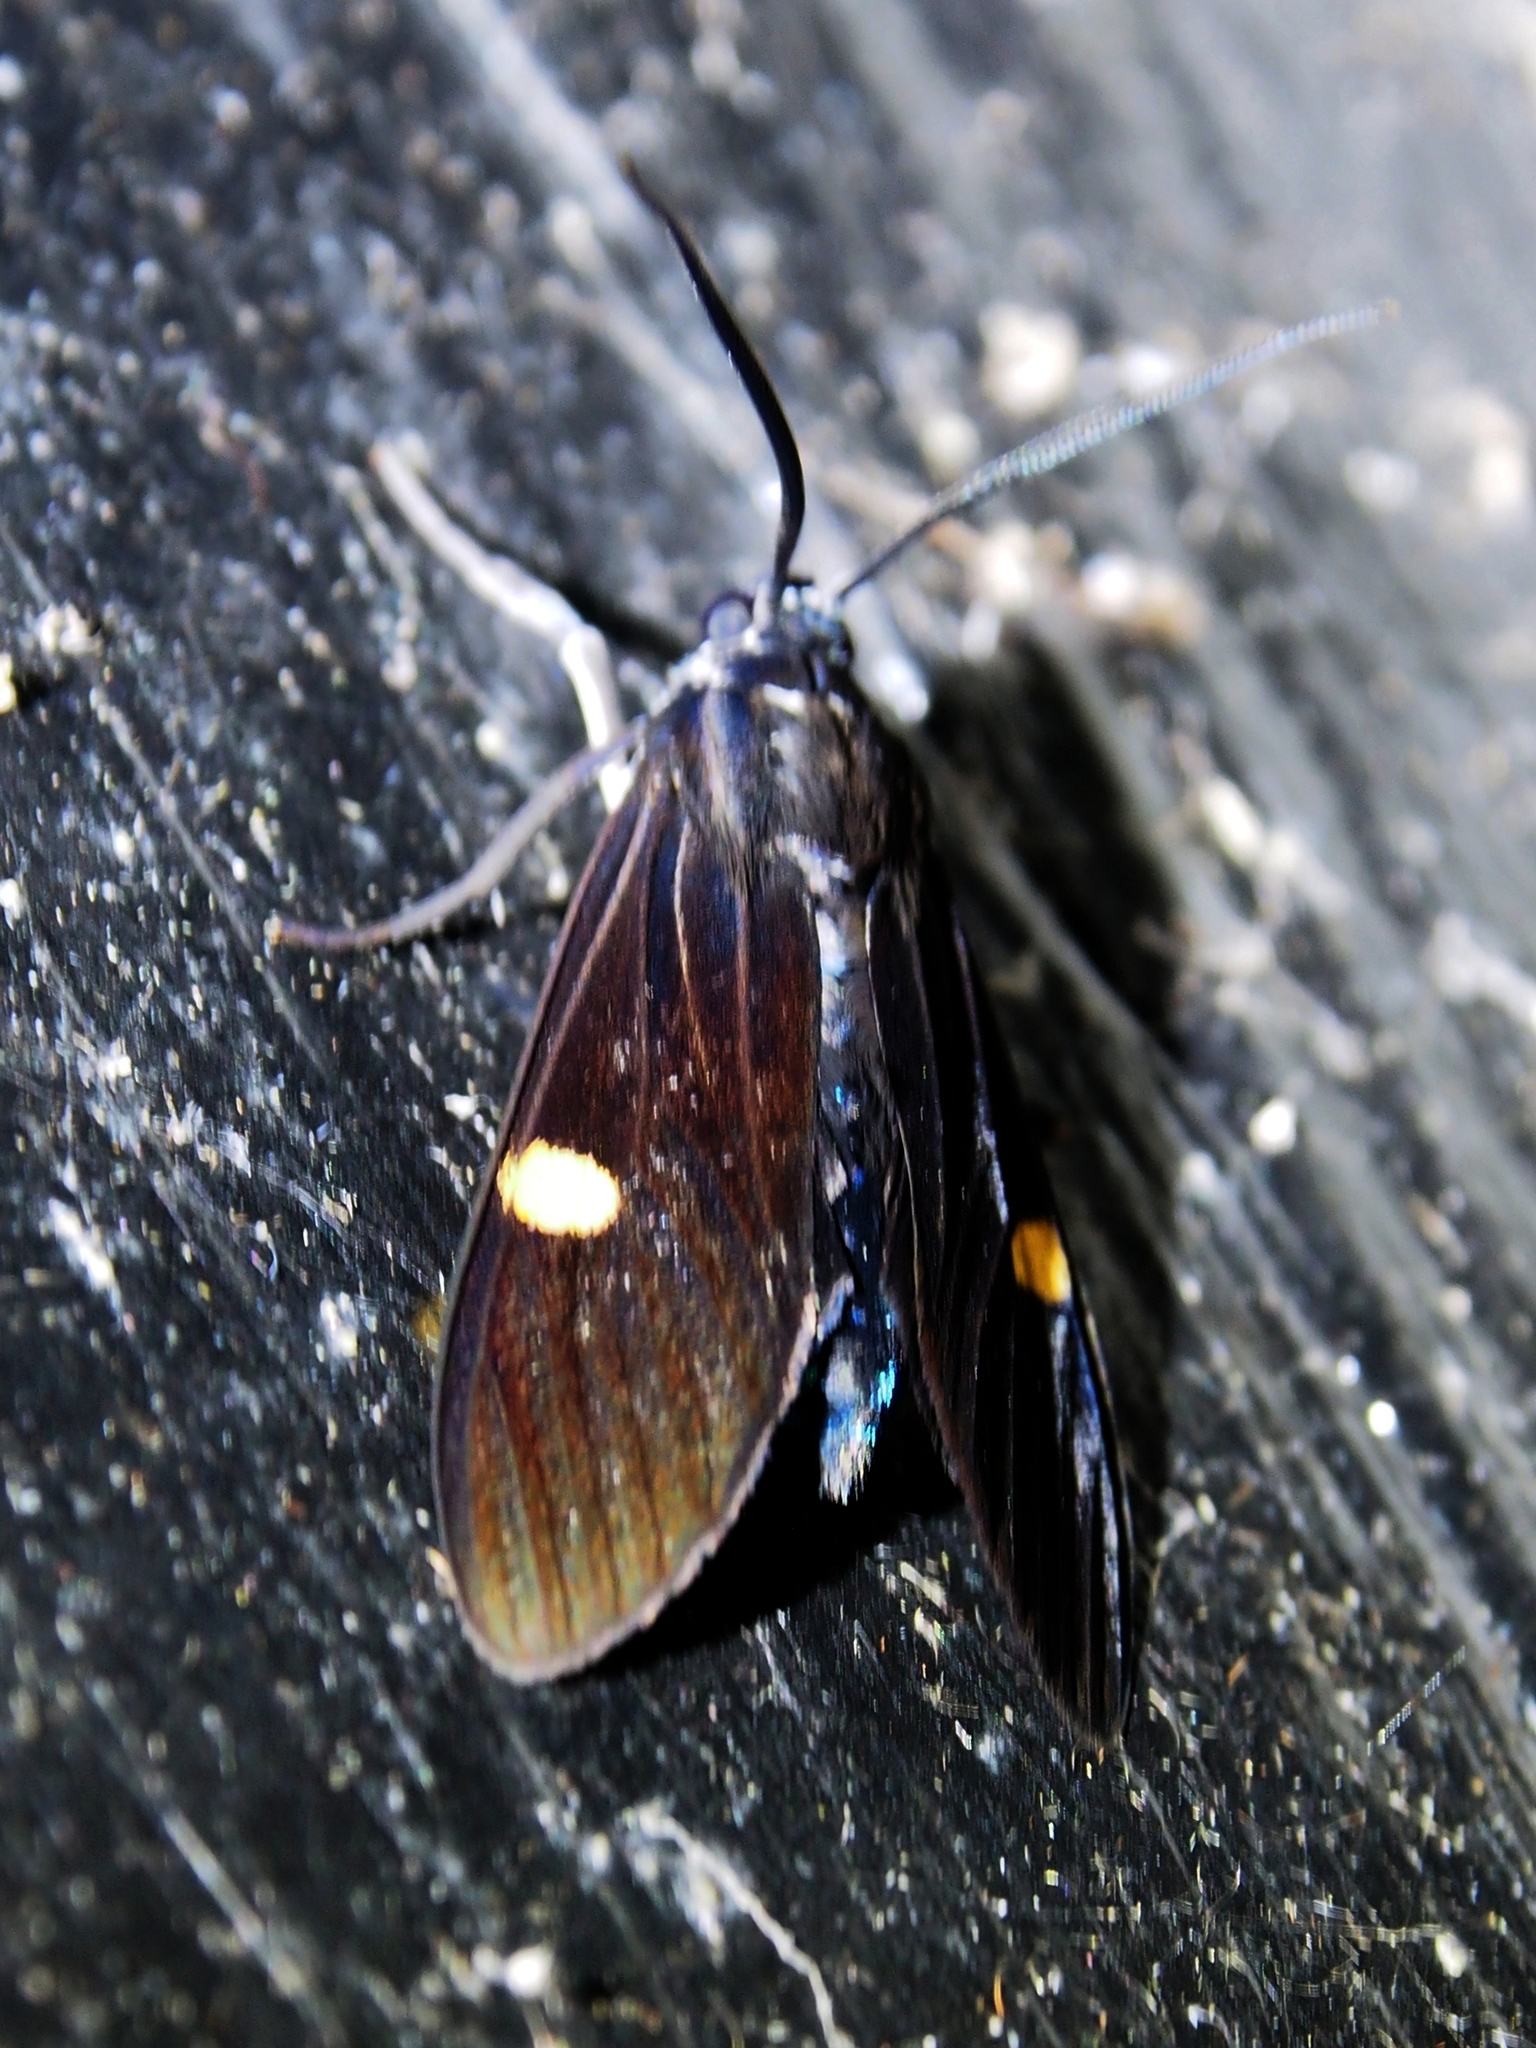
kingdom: Animalia
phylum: Arthropoda
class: Insecta
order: Lepidoptera
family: Erebidae
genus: Aclytia
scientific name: Aclytia heber
